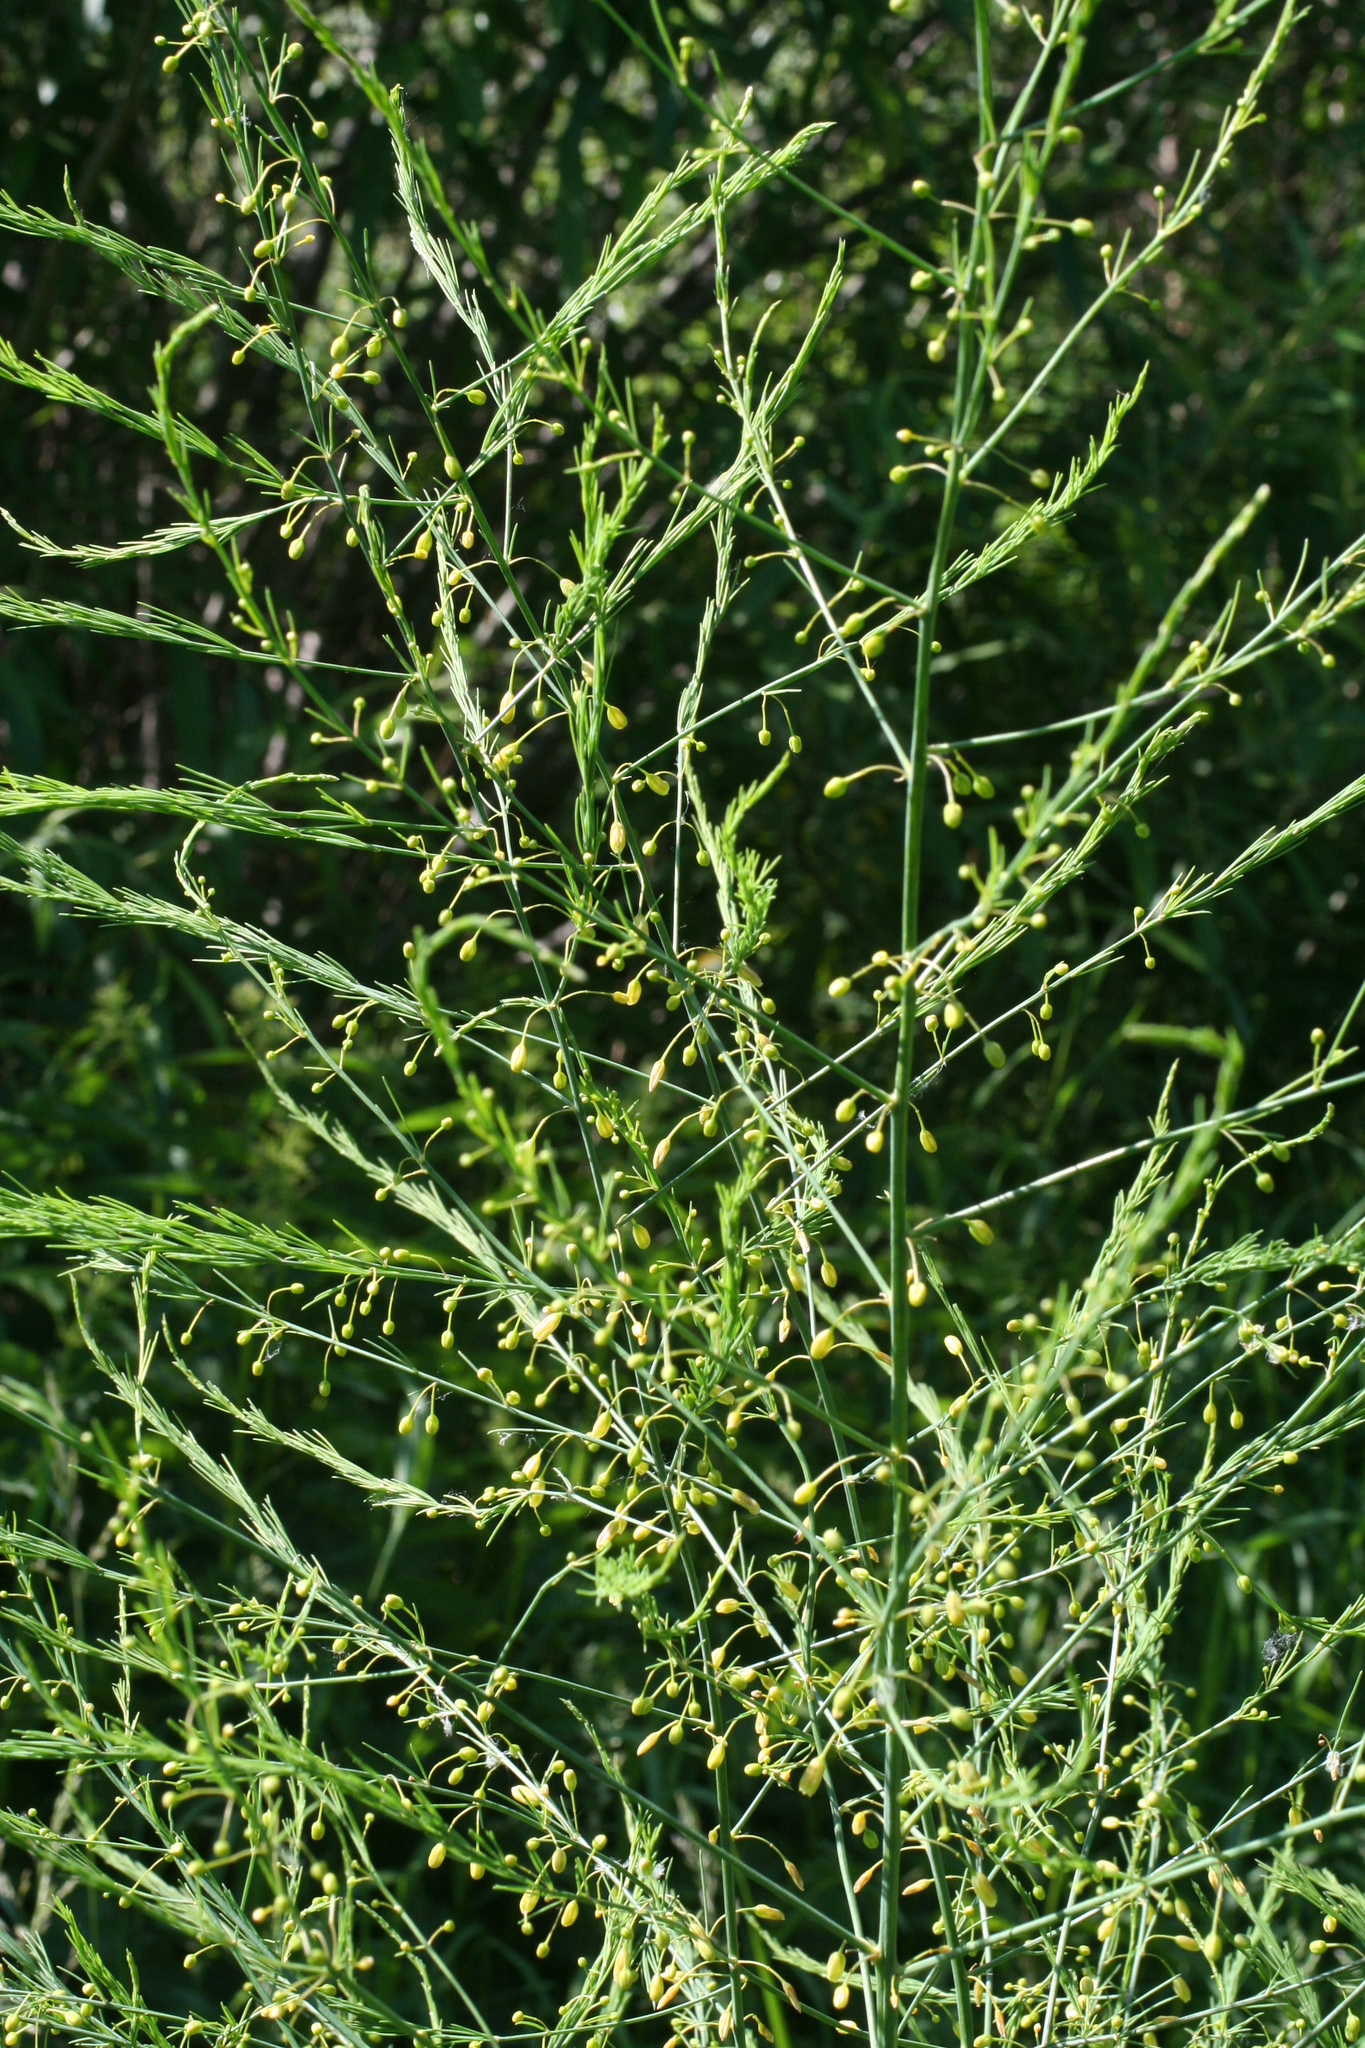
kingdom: Plantae
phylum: Tracheophyta
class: Liliopsida
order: Asparagales
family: Asparagaceae
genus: Asparagus
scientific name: Asparagus officinalis
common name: Garden asparagus
